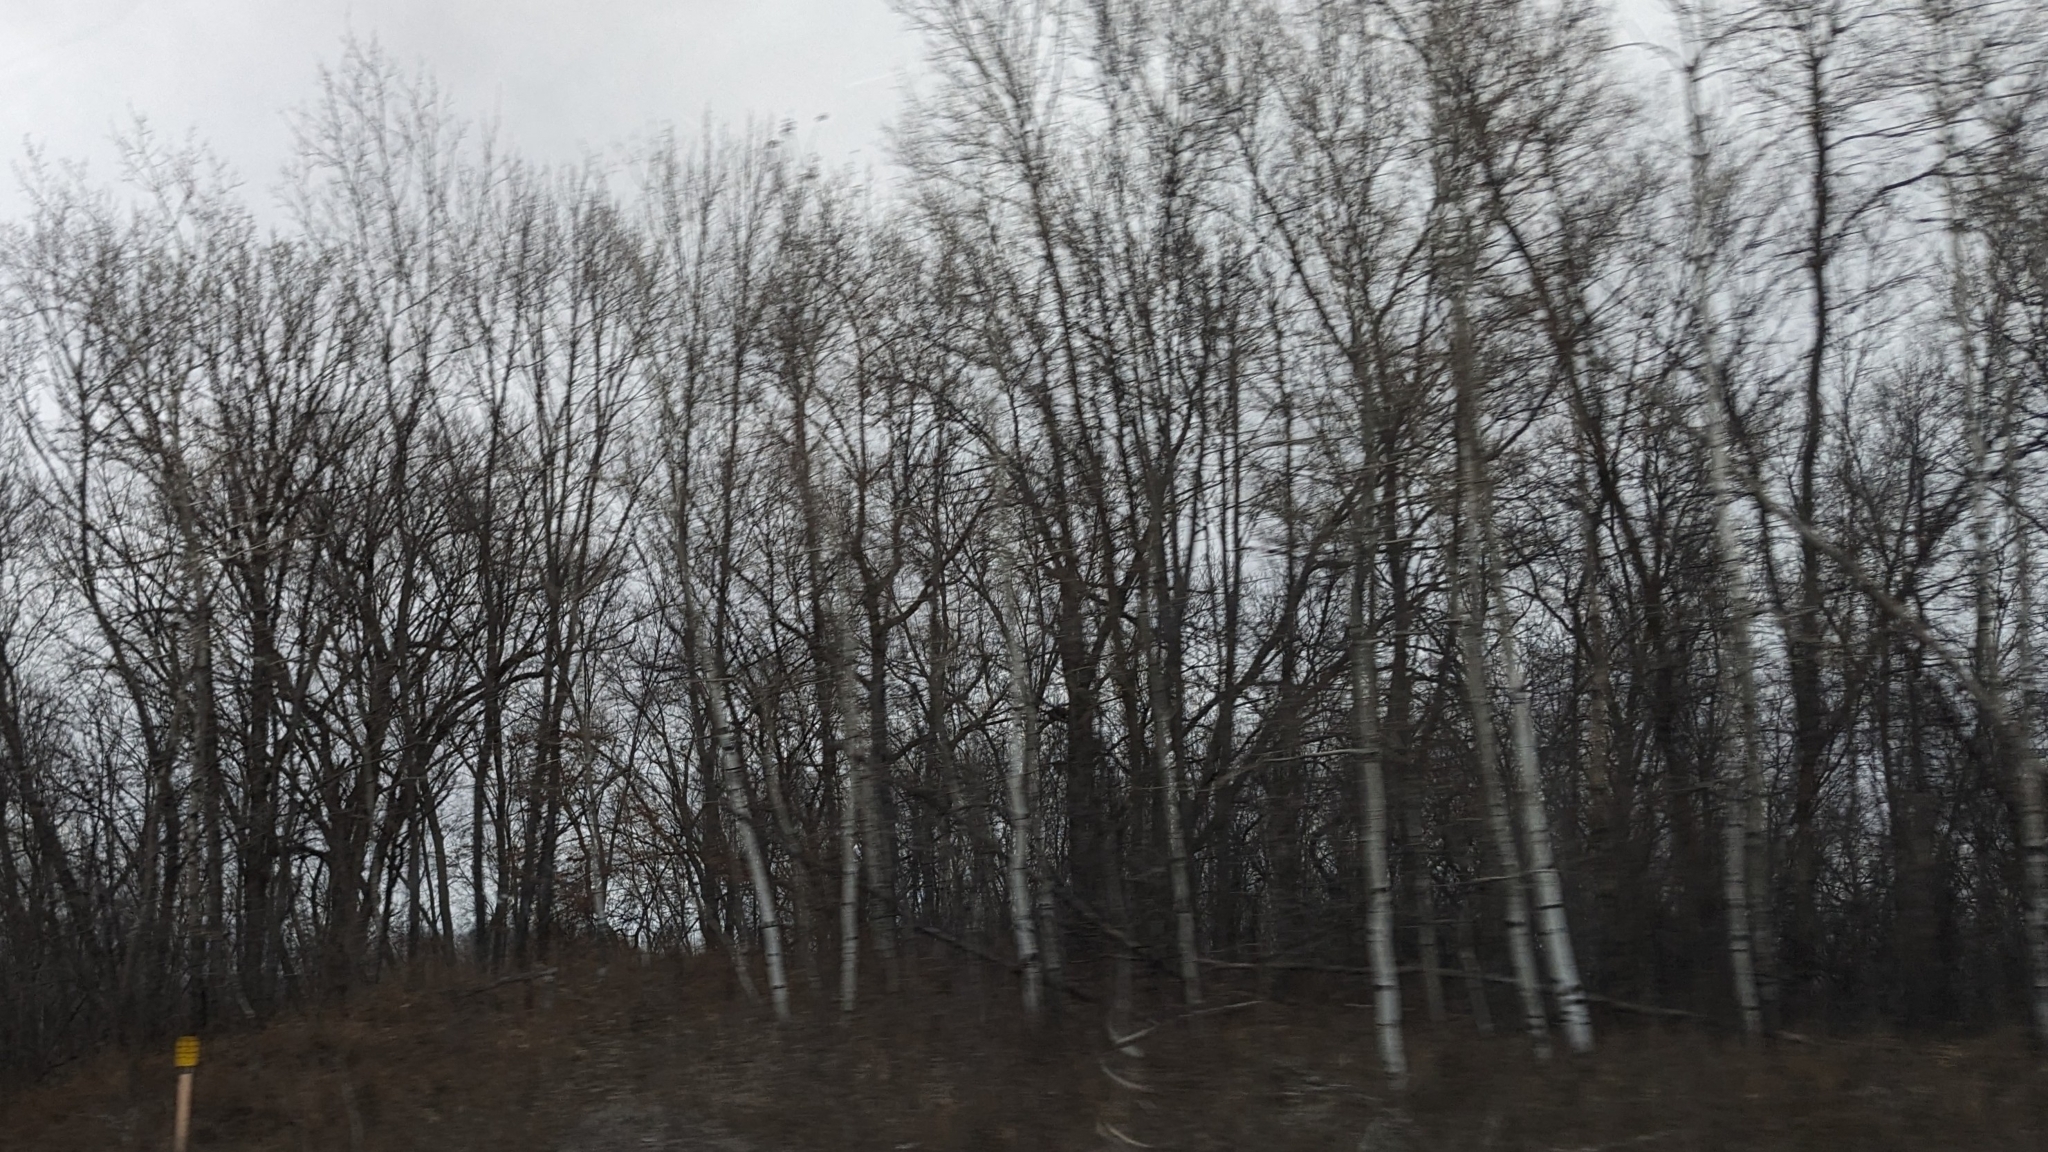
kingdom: Plantae
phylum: Tracheophyta
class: Magnoliopsida
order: Malpighiales
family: Salicaceae
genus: Populus
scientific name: Populus tremuloides
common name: Quaking aspen
